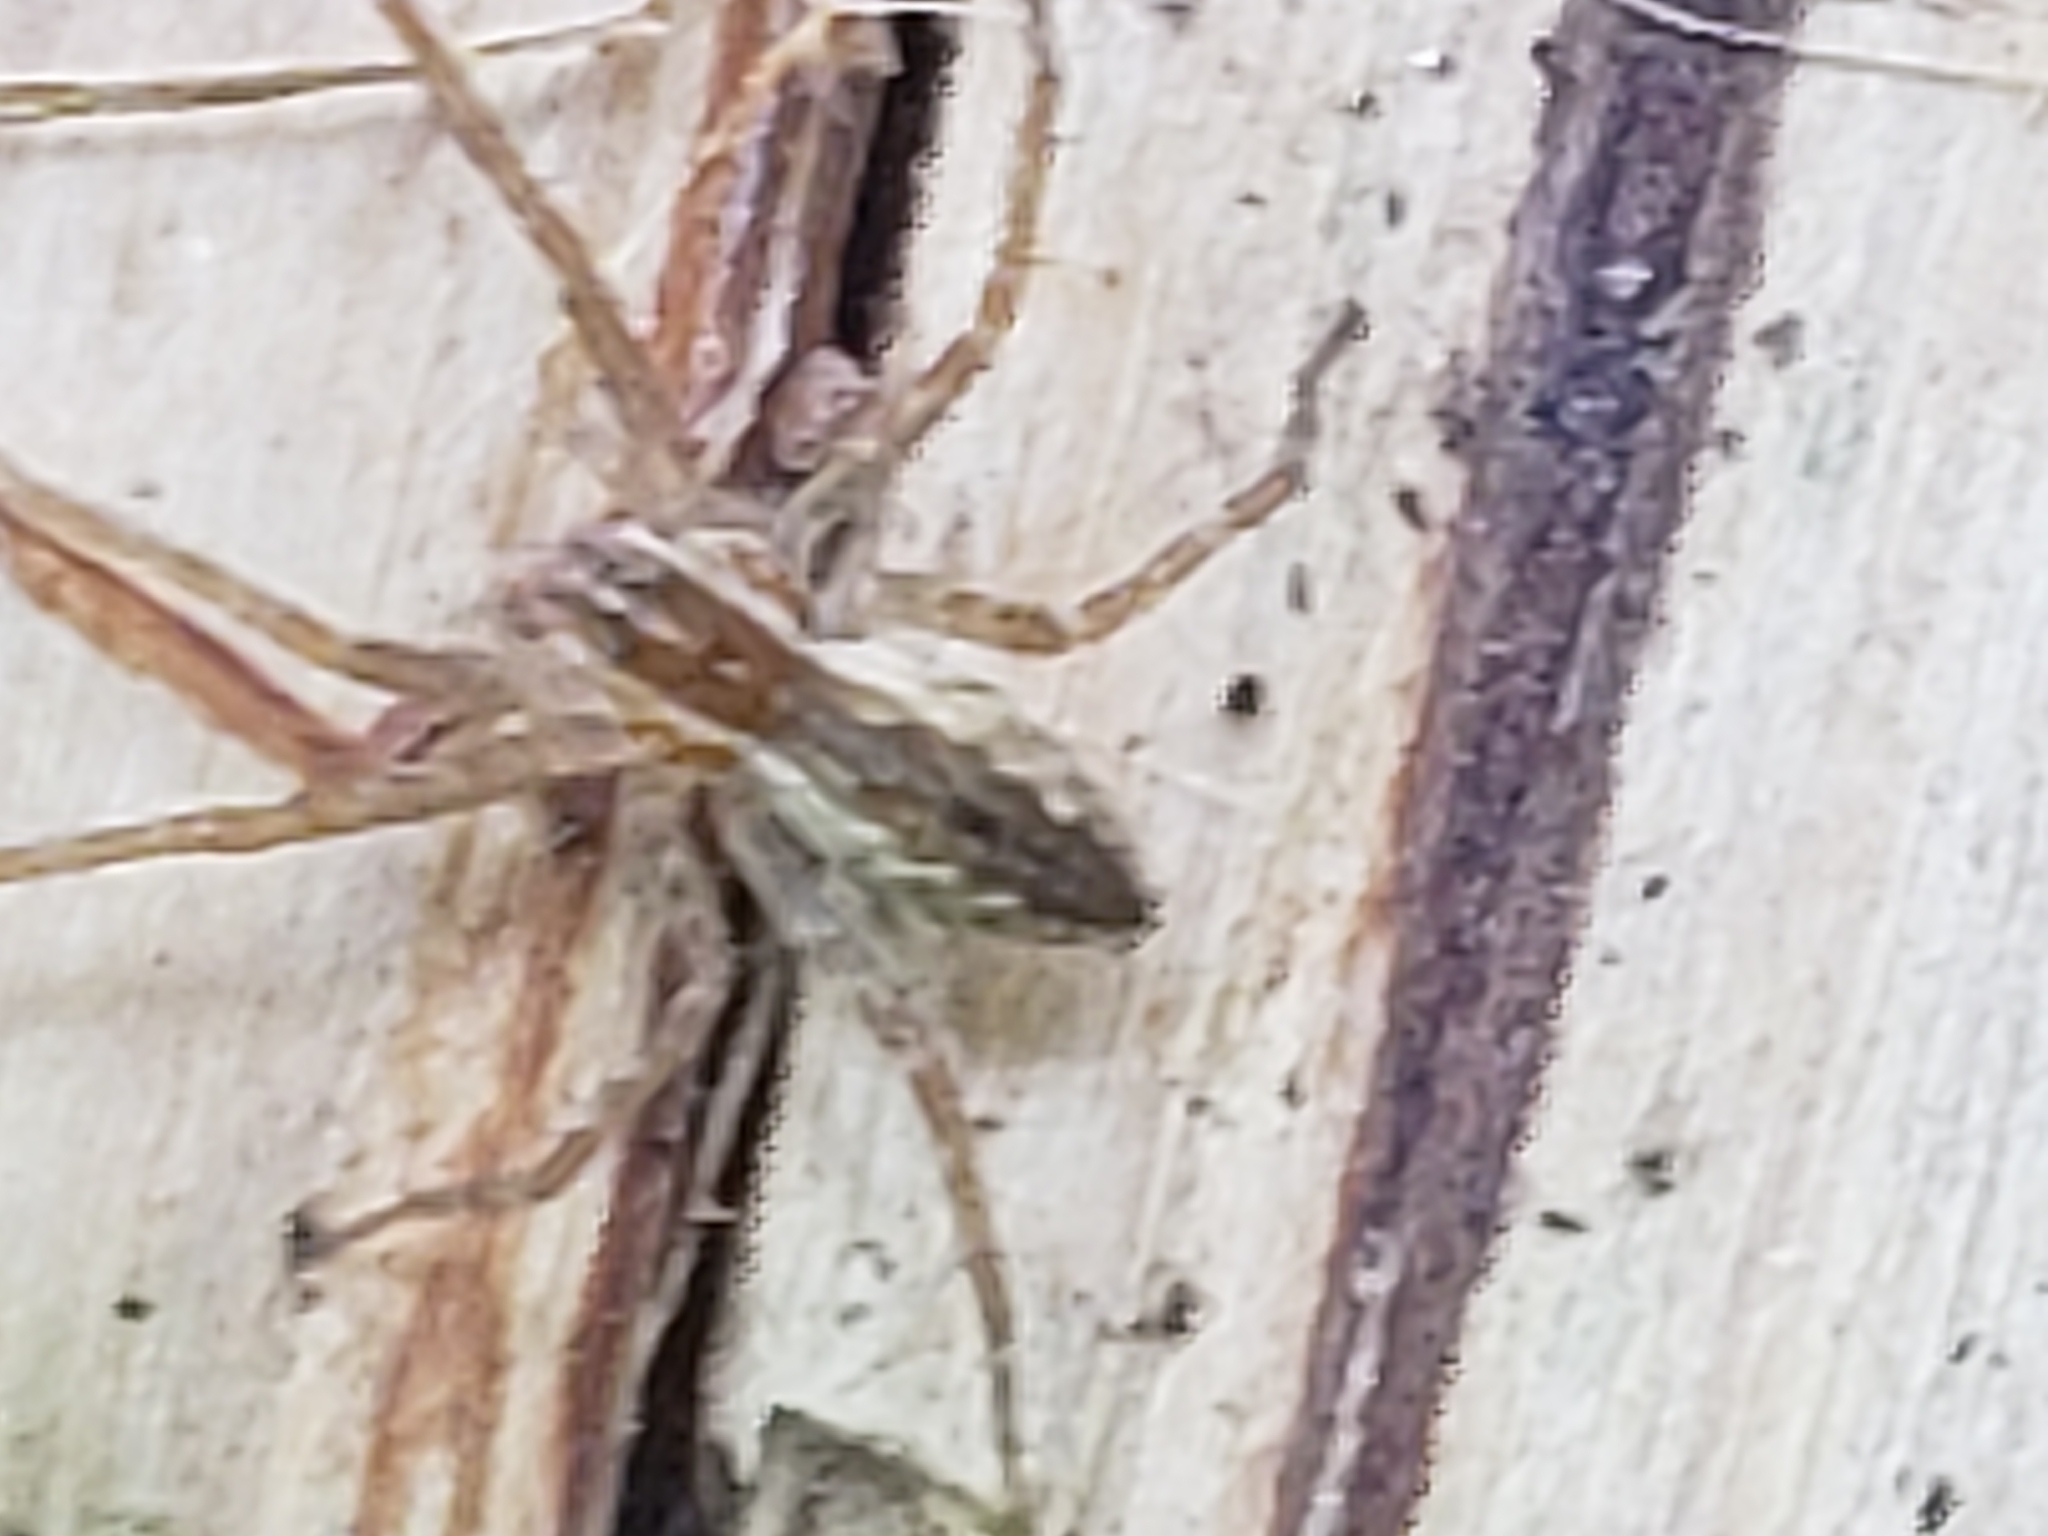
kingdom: Animalia
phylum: Arthropoda
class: Arachnida
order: Araneae
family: Pisauridae
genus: Pisaurina
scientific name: Pisaurina mira
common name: American nursery web spider
